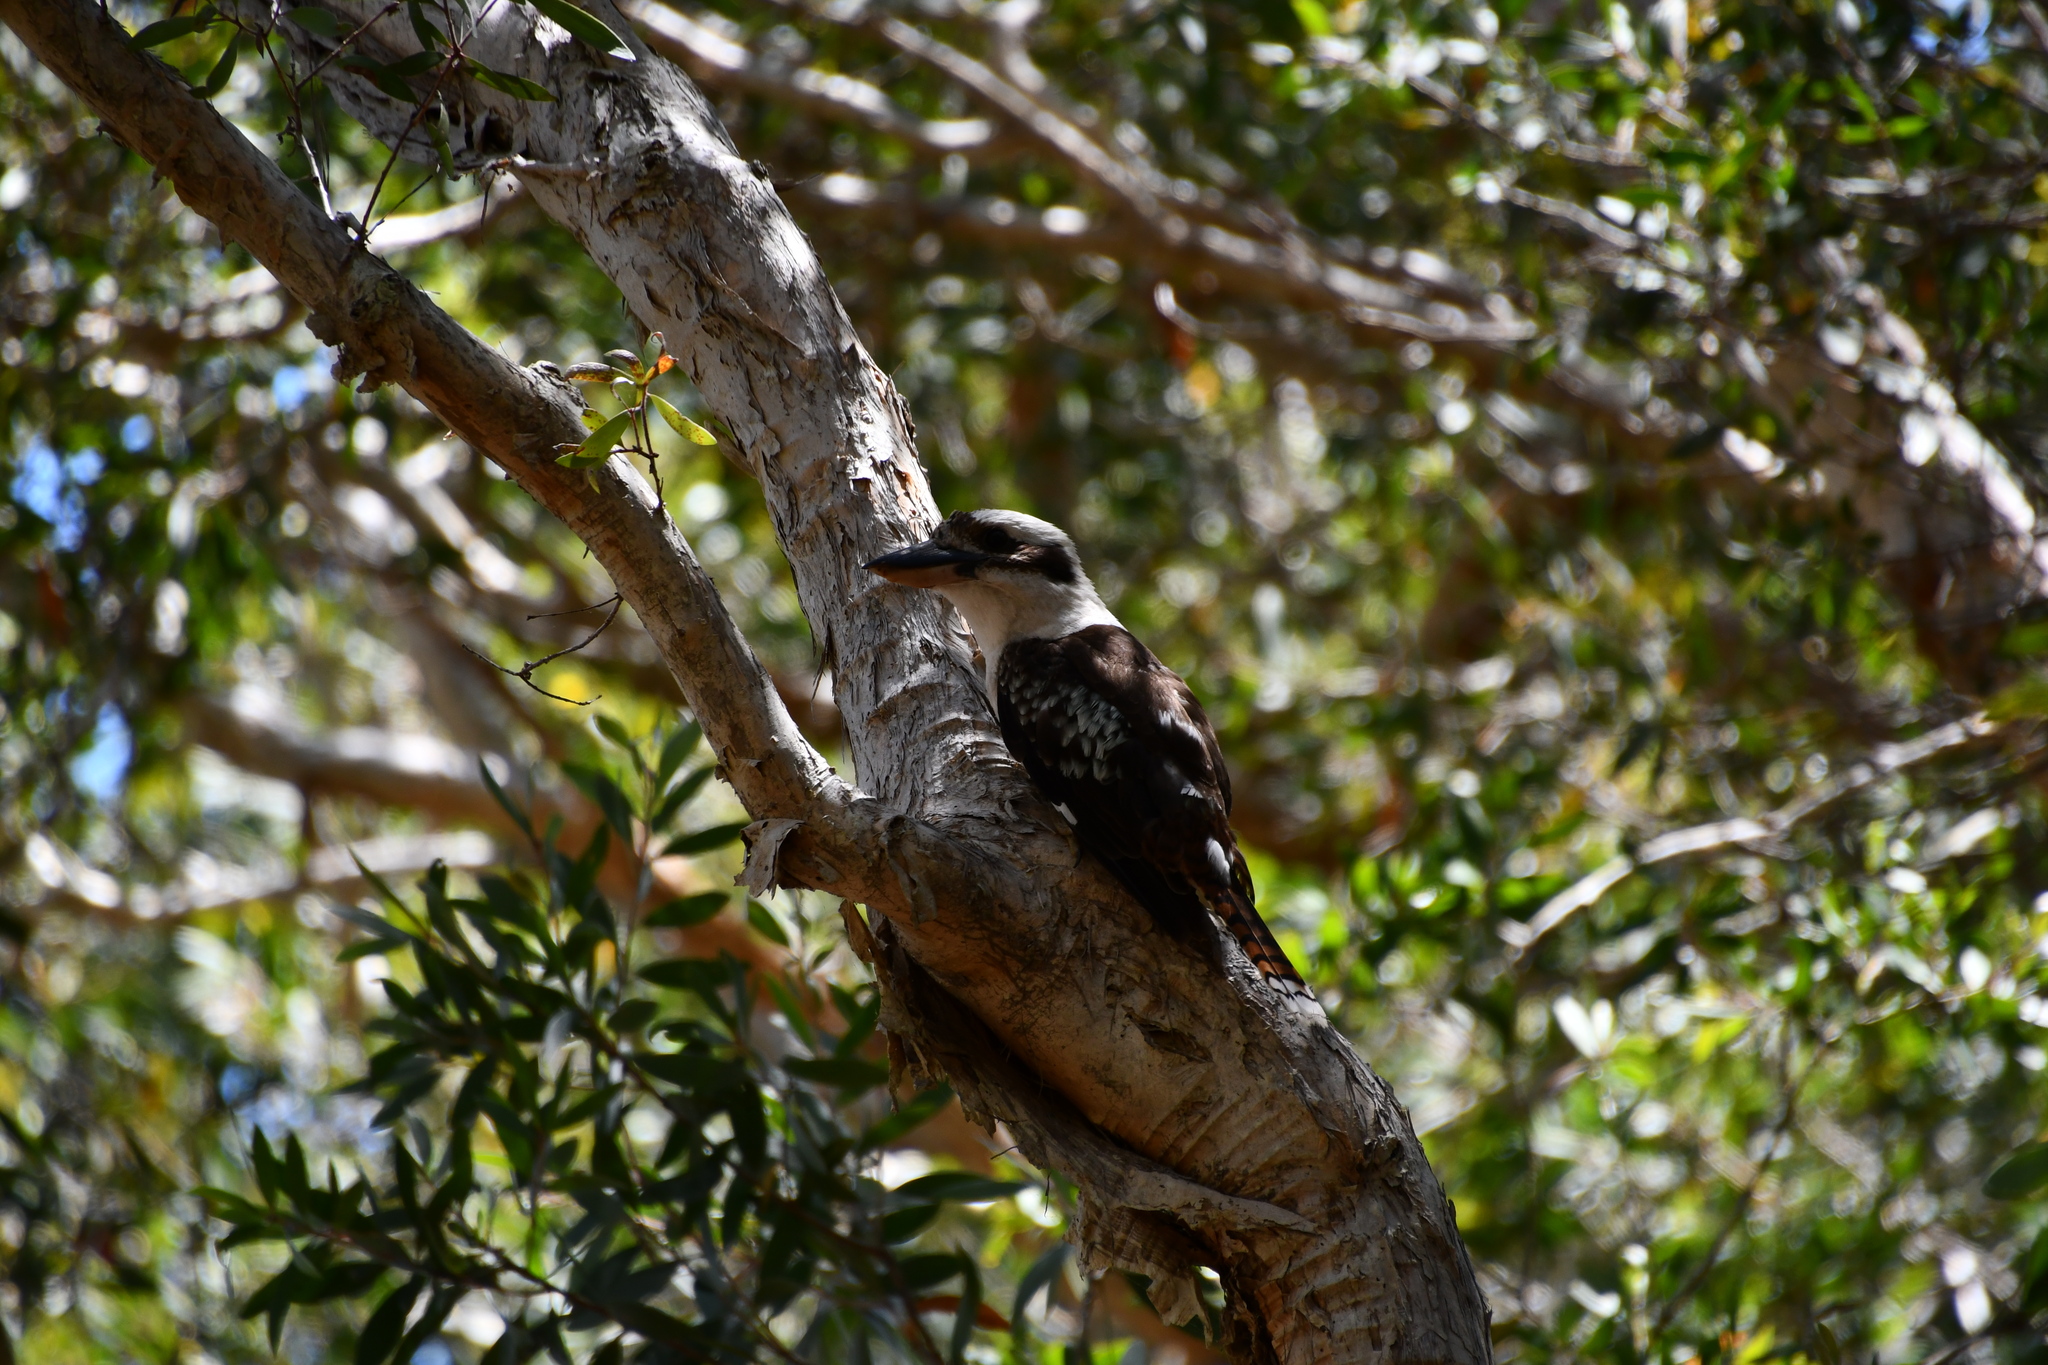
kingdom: Animalia
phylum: Chordata
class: Aves
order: Coraciiformes
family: Alcedinidae
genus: Dacelo
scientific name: Dacelo novaeguineae
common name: Laughing kookaburra
